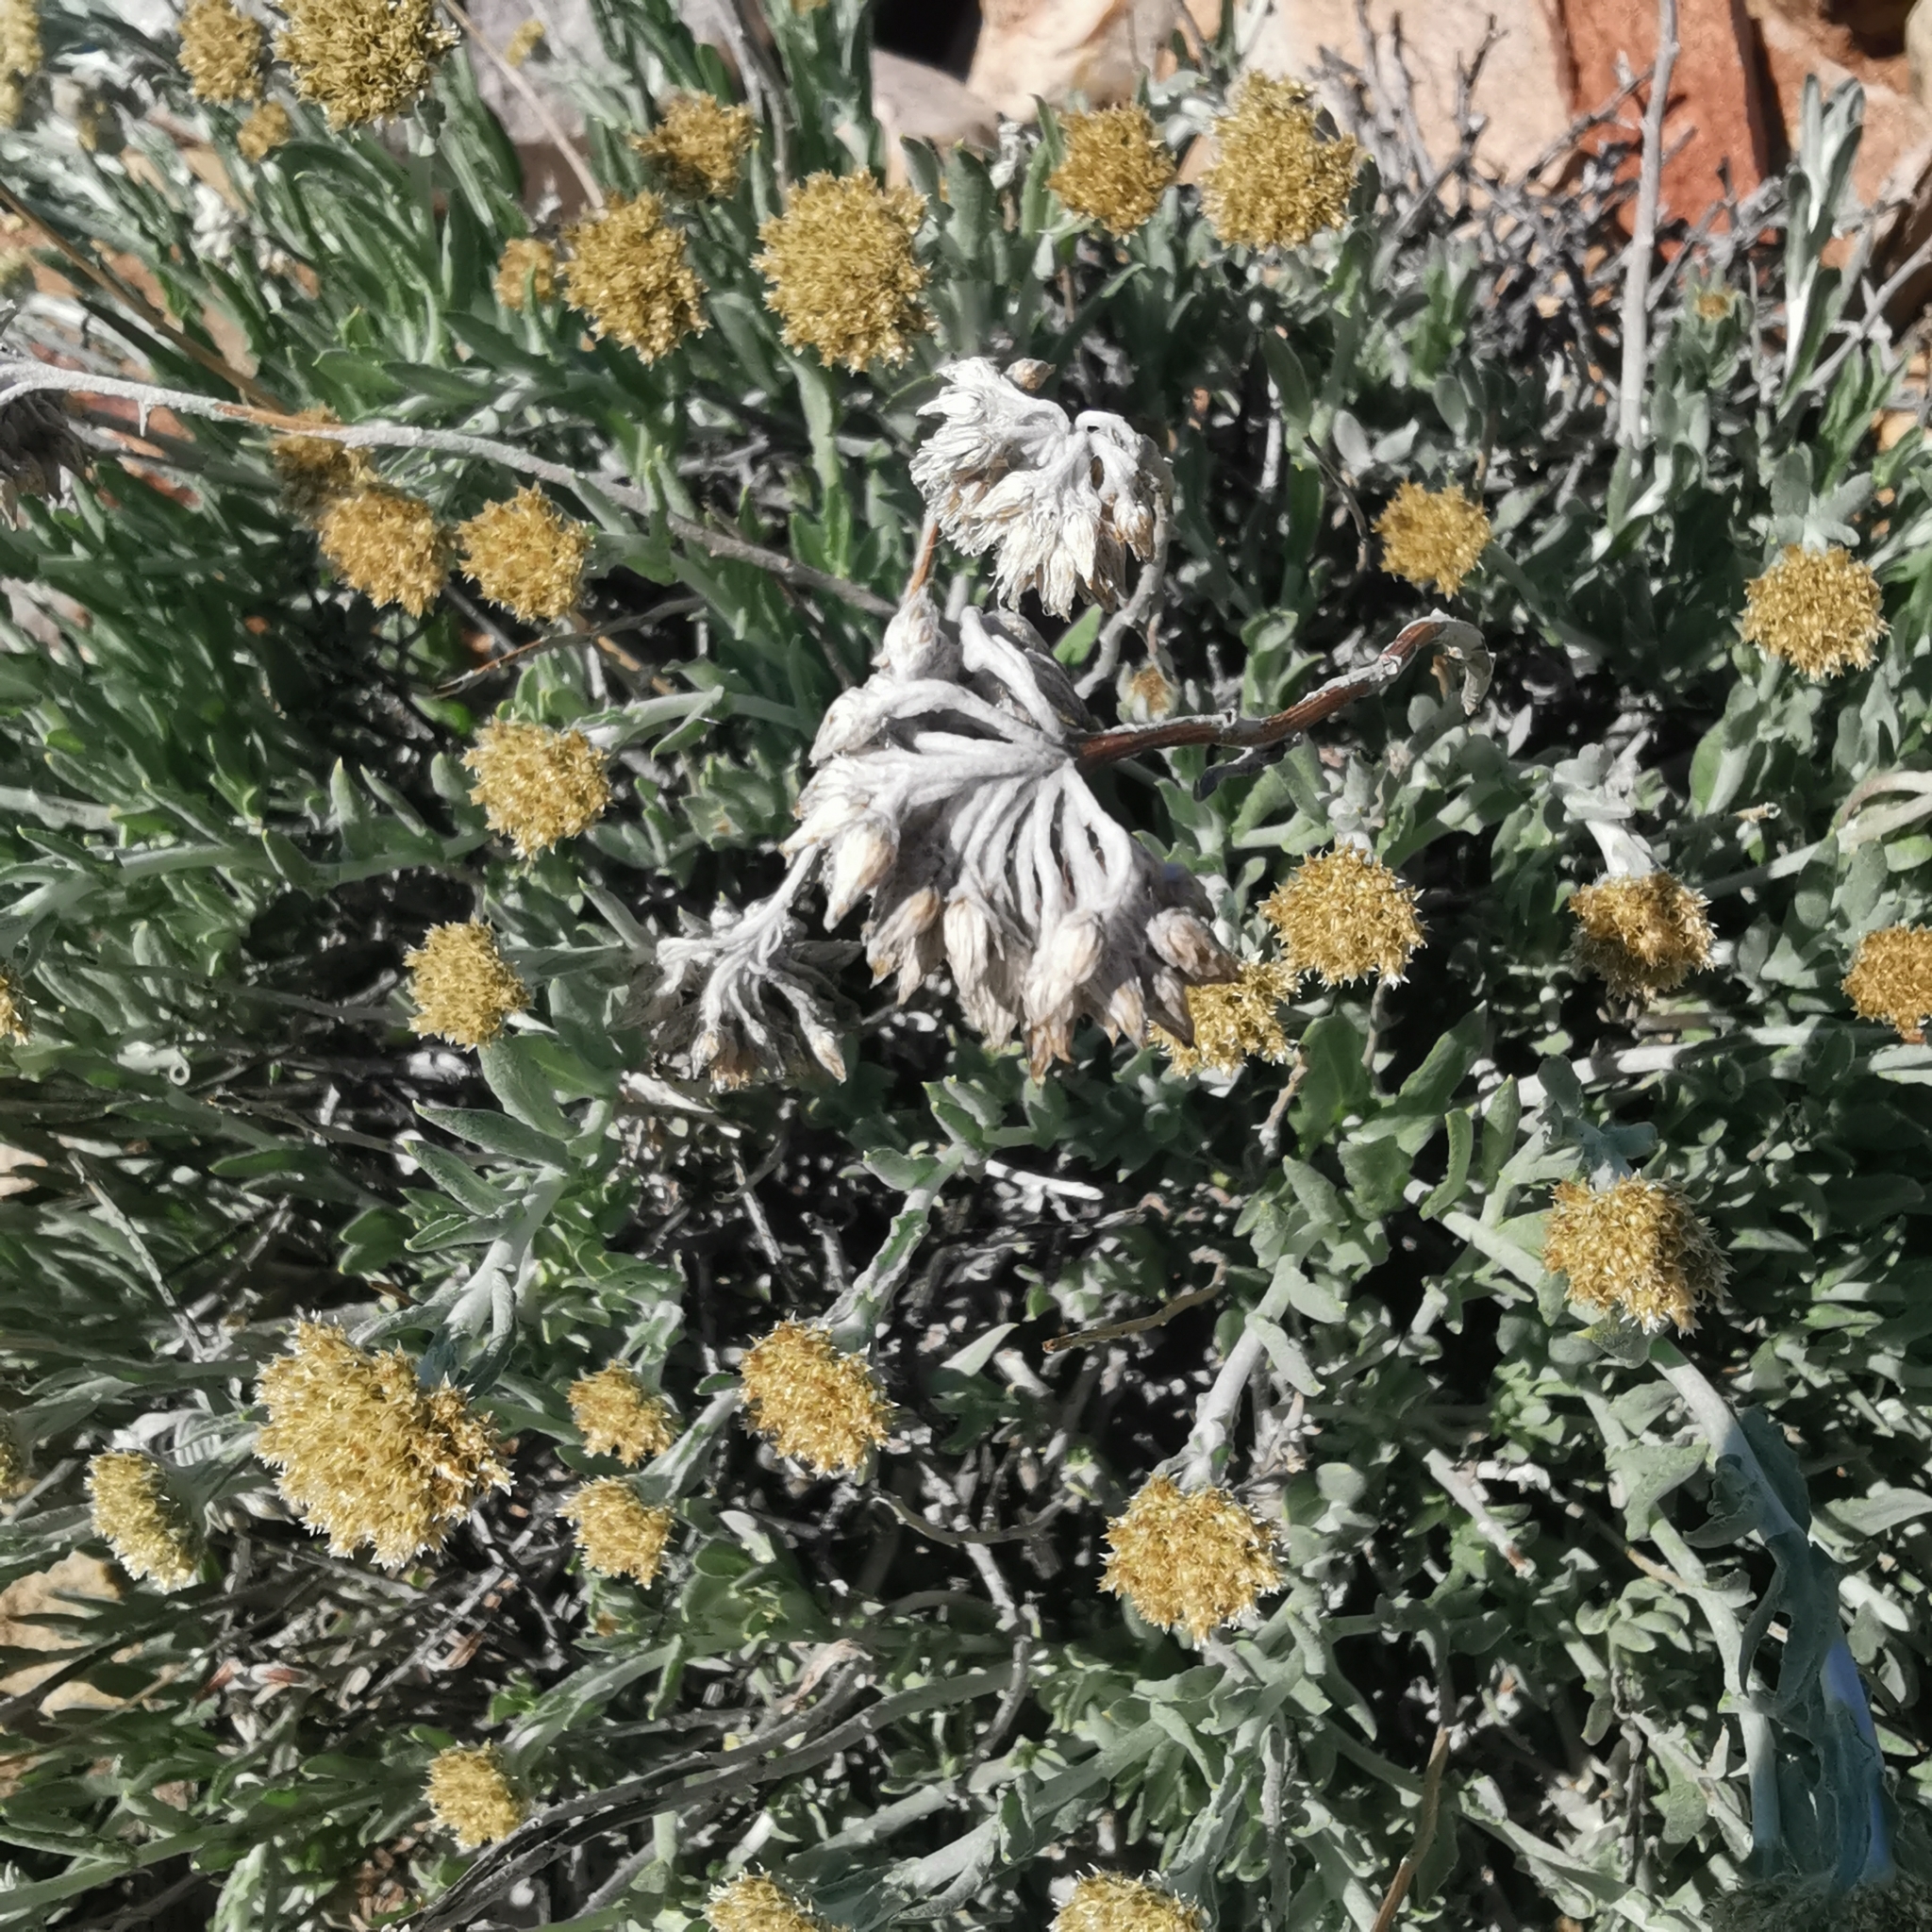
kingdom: Plantae
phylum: Tracheophyta
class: Magnoliopsida
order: Asterales
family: Asteraceae
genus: Helichrysum
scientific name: Helichrysum hebelepis
